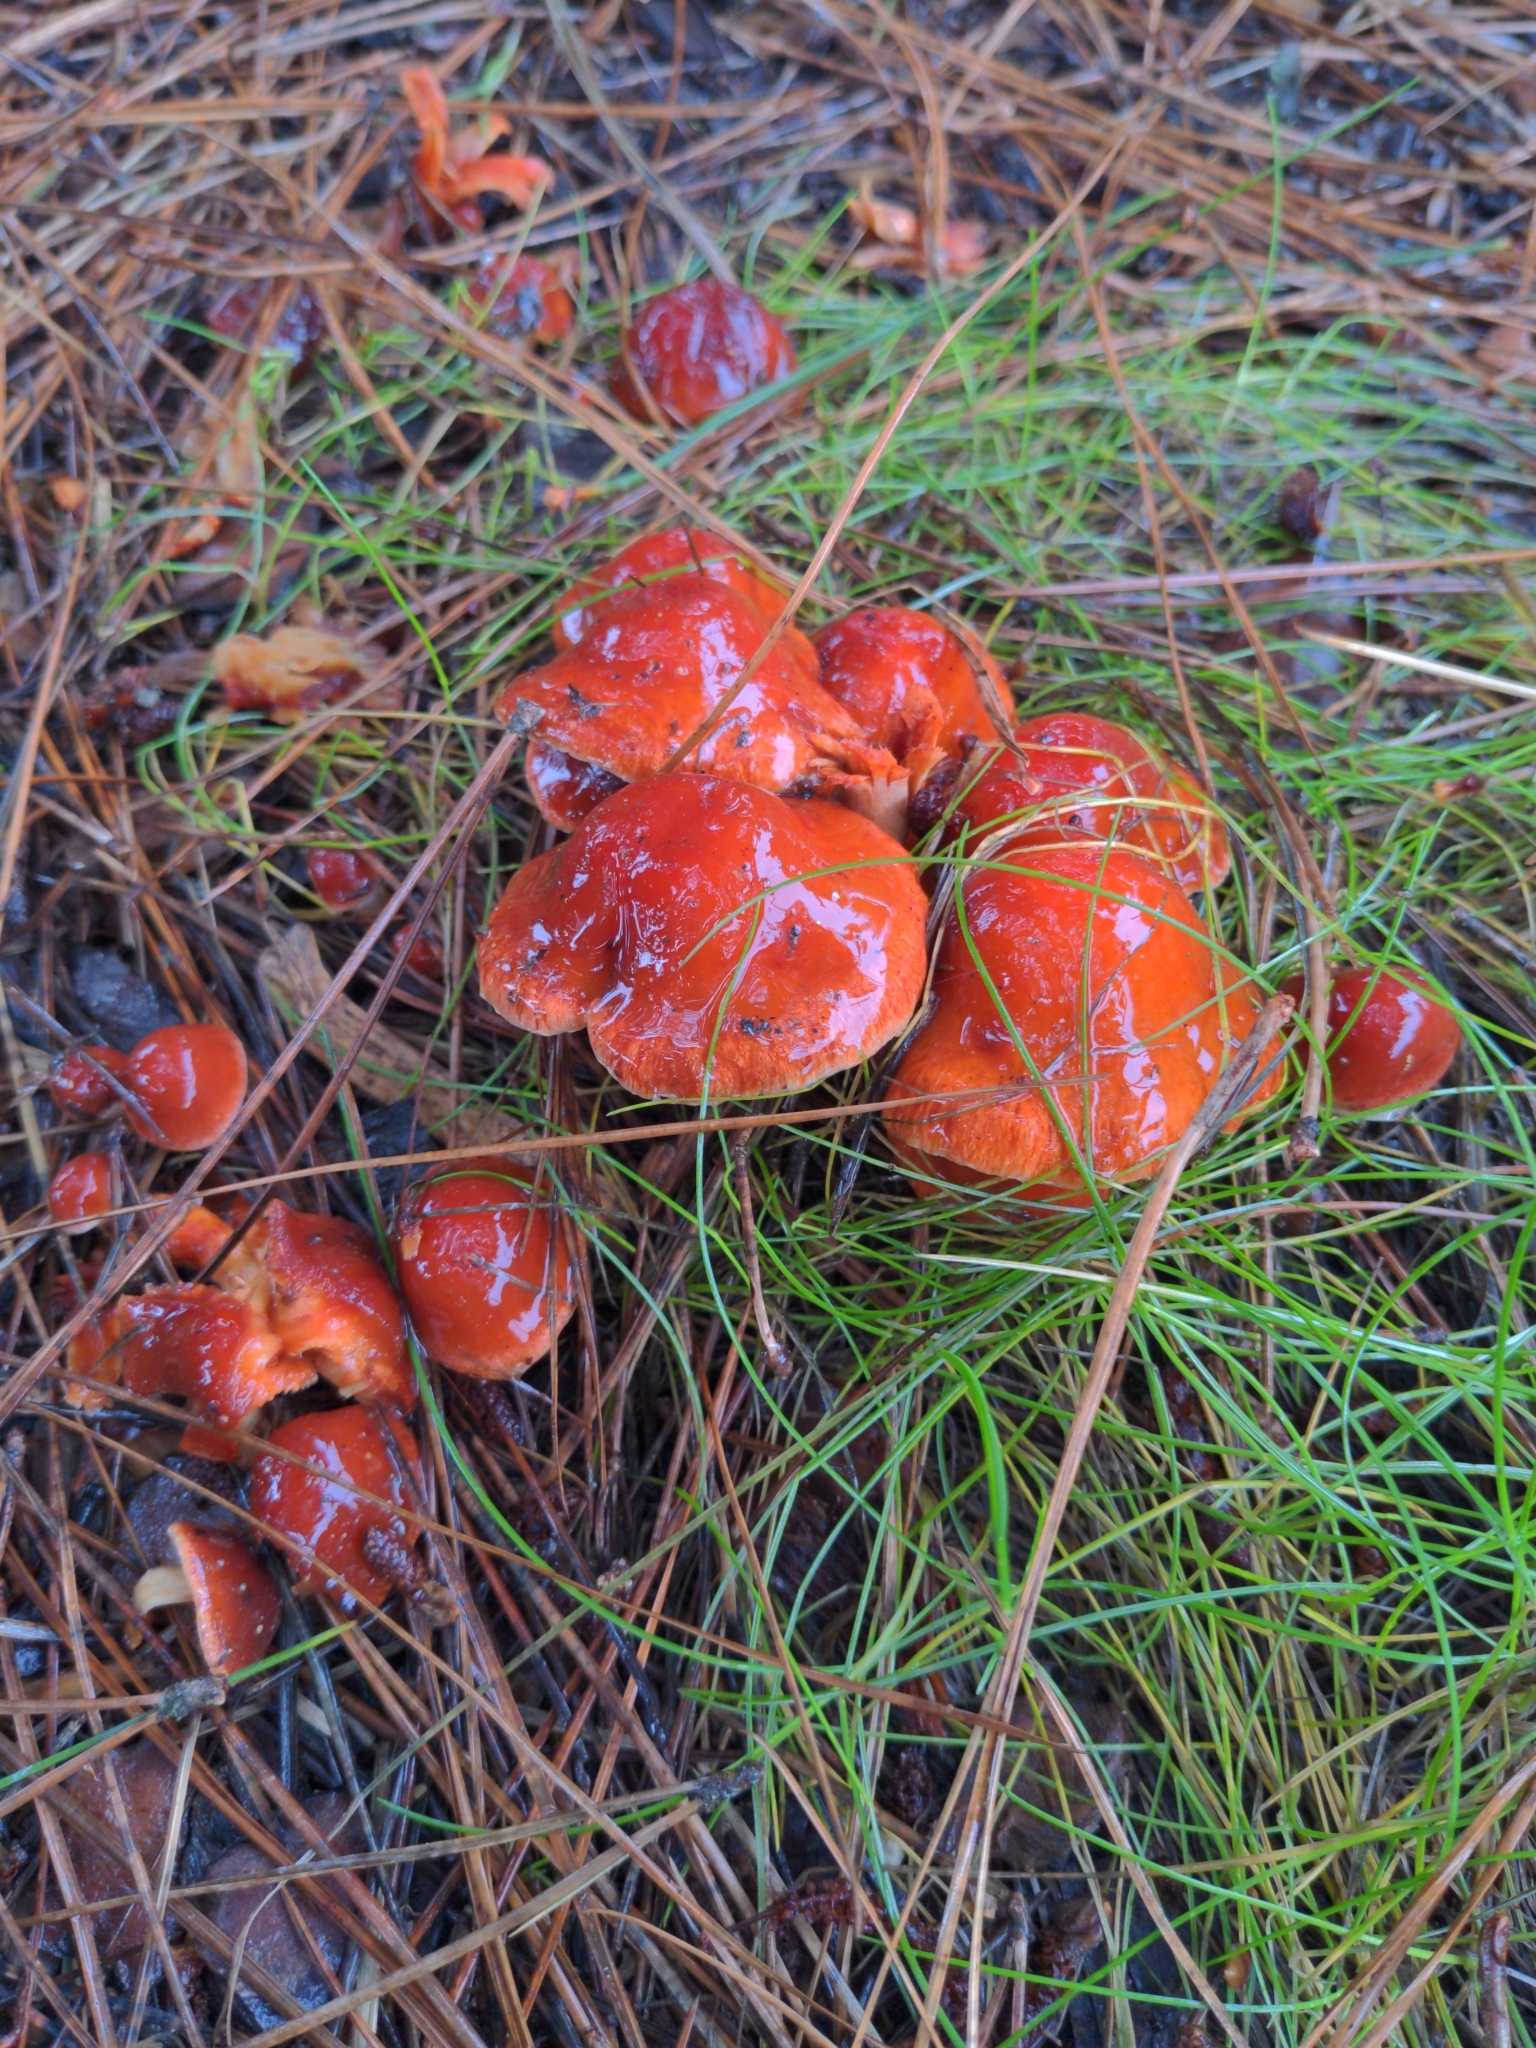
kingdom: Fungi
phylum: Basidiomycota
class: Agaricomycetes
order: Agaricales
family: Strophariaceae
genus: Leratiomyces
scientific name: Leratiomyces ceres
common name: Redlead roundhead
